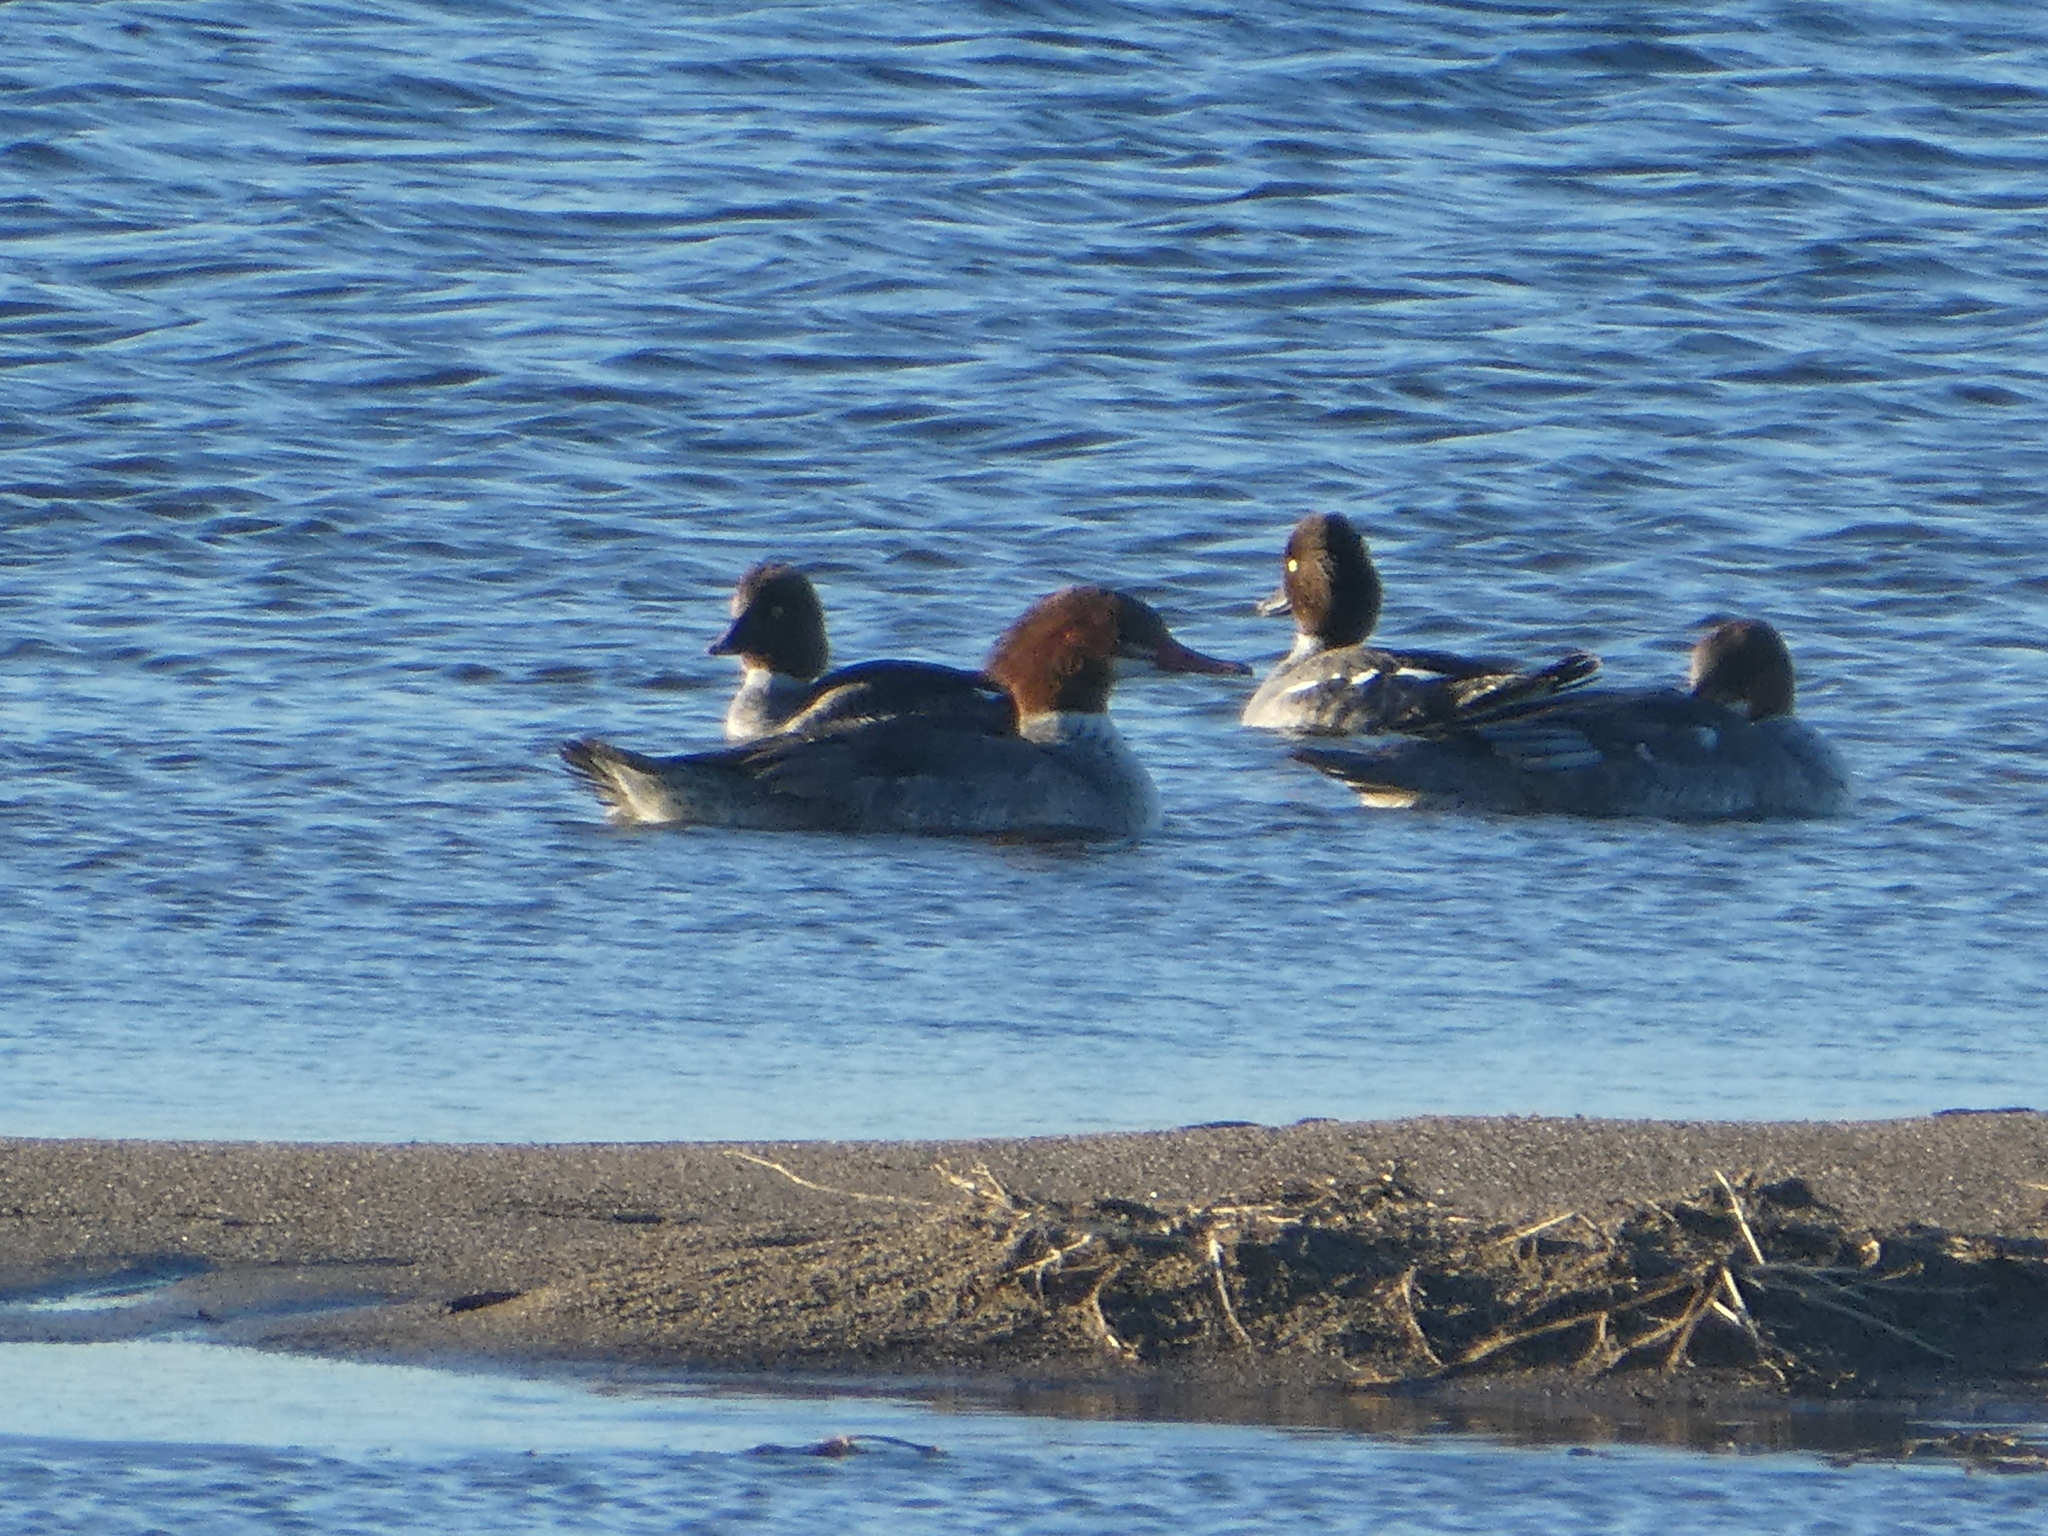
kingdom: Animalia
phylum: Chordata
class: Aves
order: Anseriformes
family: Anatidae
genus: Mergus
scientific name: Mergus merganser
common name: Common merganser
